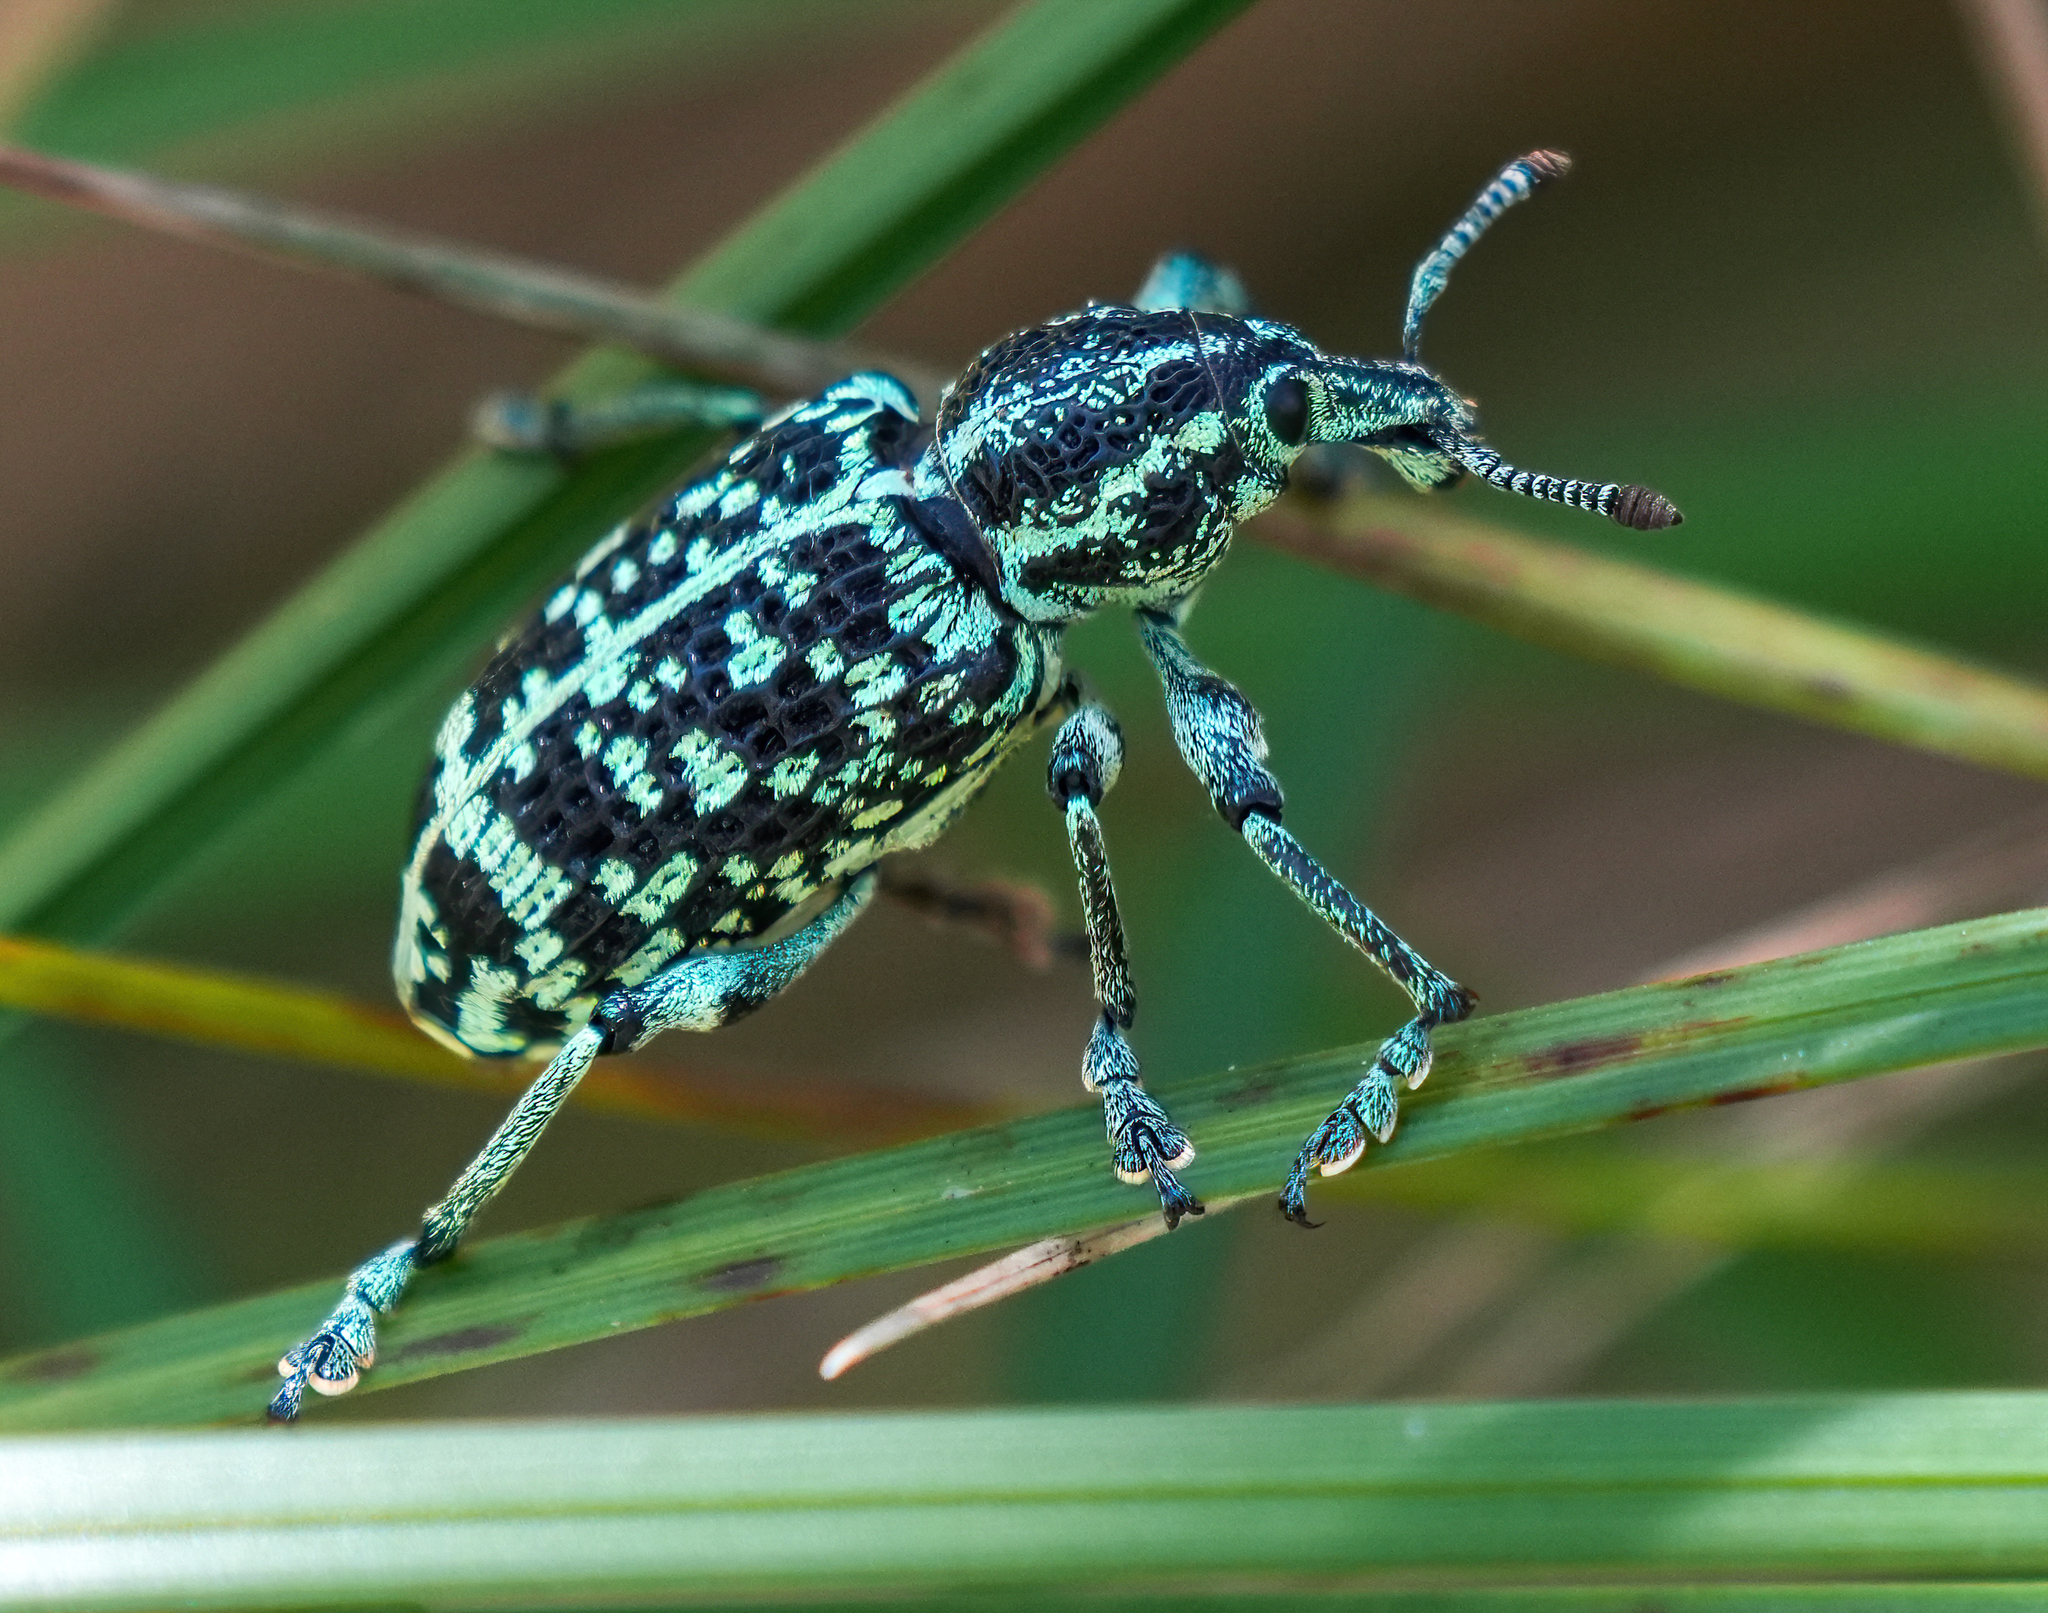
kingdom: Animalia
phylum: Arthropoda
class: Insecta
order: Coleoptera
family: Curculionidae
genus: Chrysolopus
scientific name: Chrysolopus spectabilis
